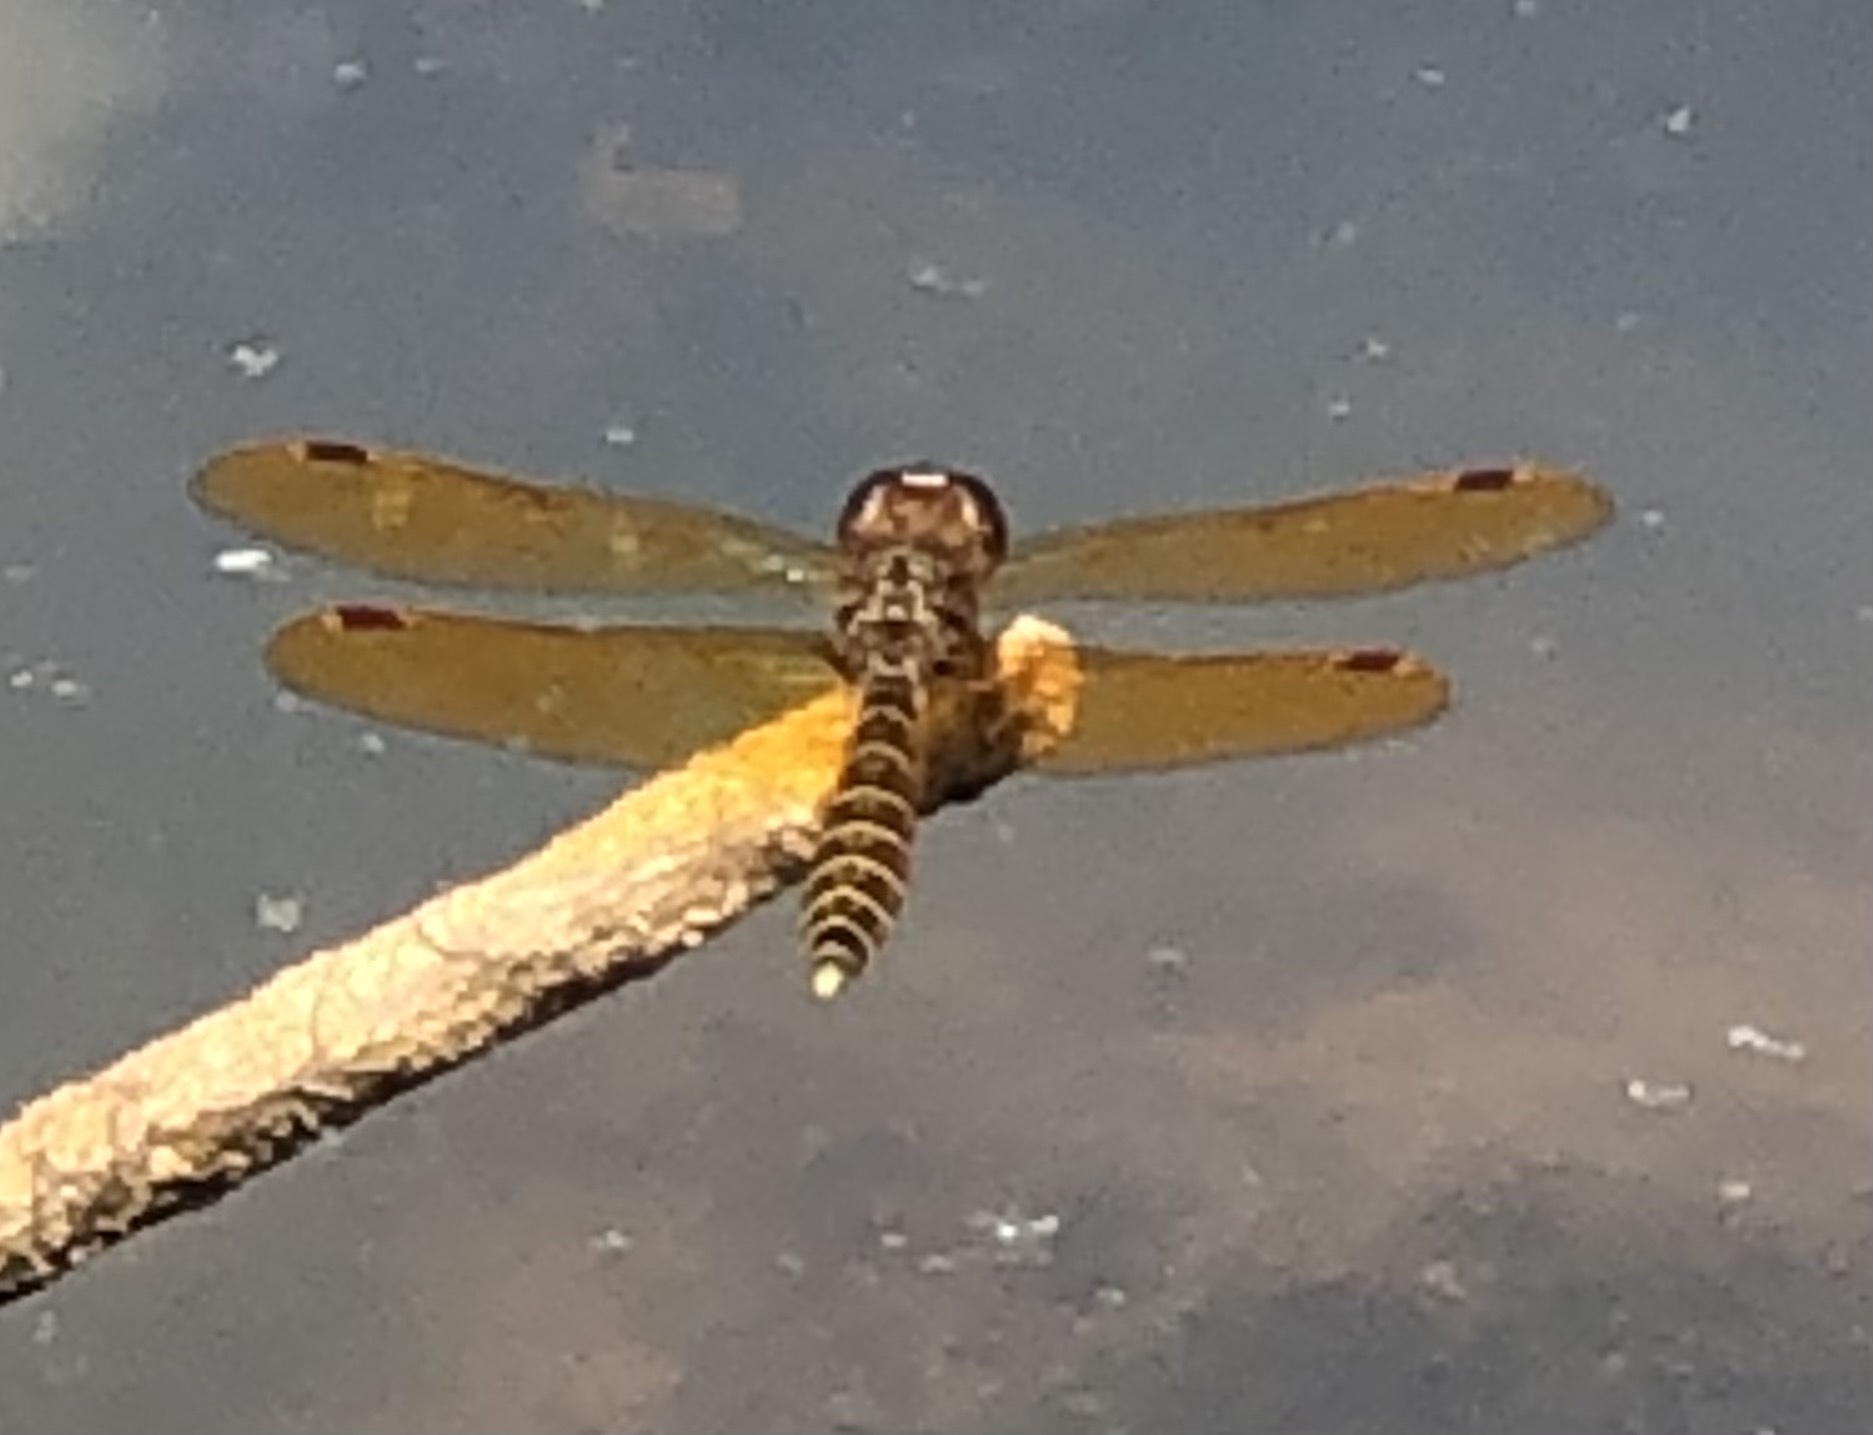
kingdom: Animalia
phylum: Arthropoda
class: Insecta
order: Odonata
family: Libellulidae
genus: Perithemis
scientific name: Perithemis tenera
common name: Eastern amberwing
